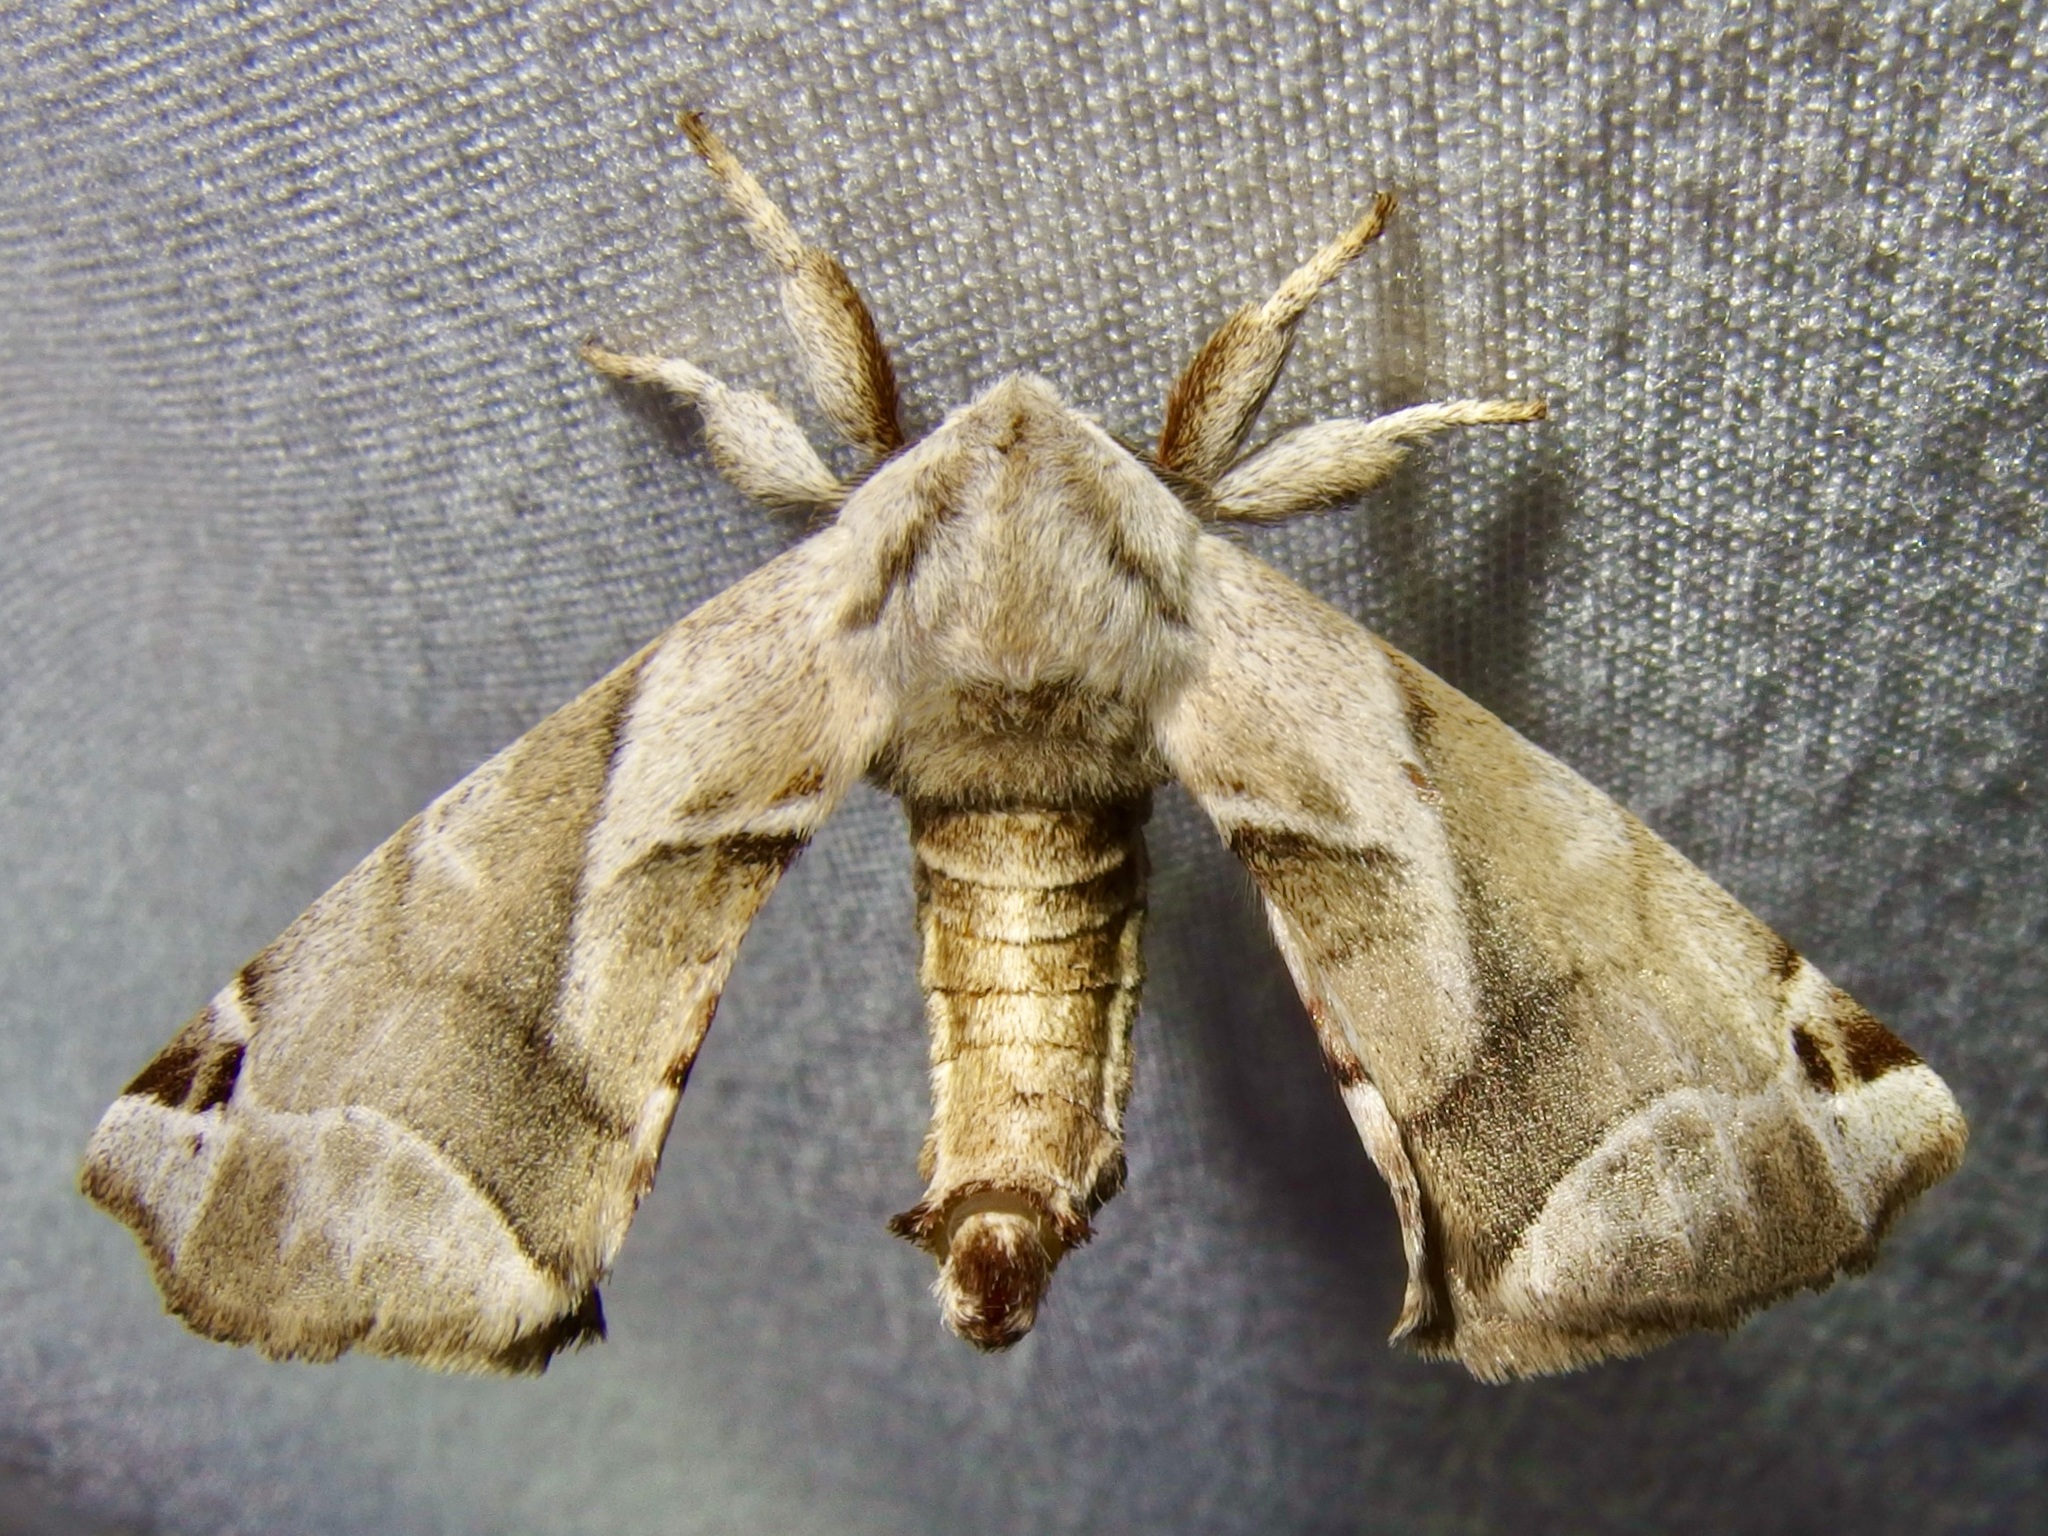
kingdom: Animalia
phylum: Arthropoda
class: Insecta
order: Lepidoptera
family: Apatelodidae
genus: Hygrochroa
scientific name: Hygrochroa Apatelodes pudefacta
